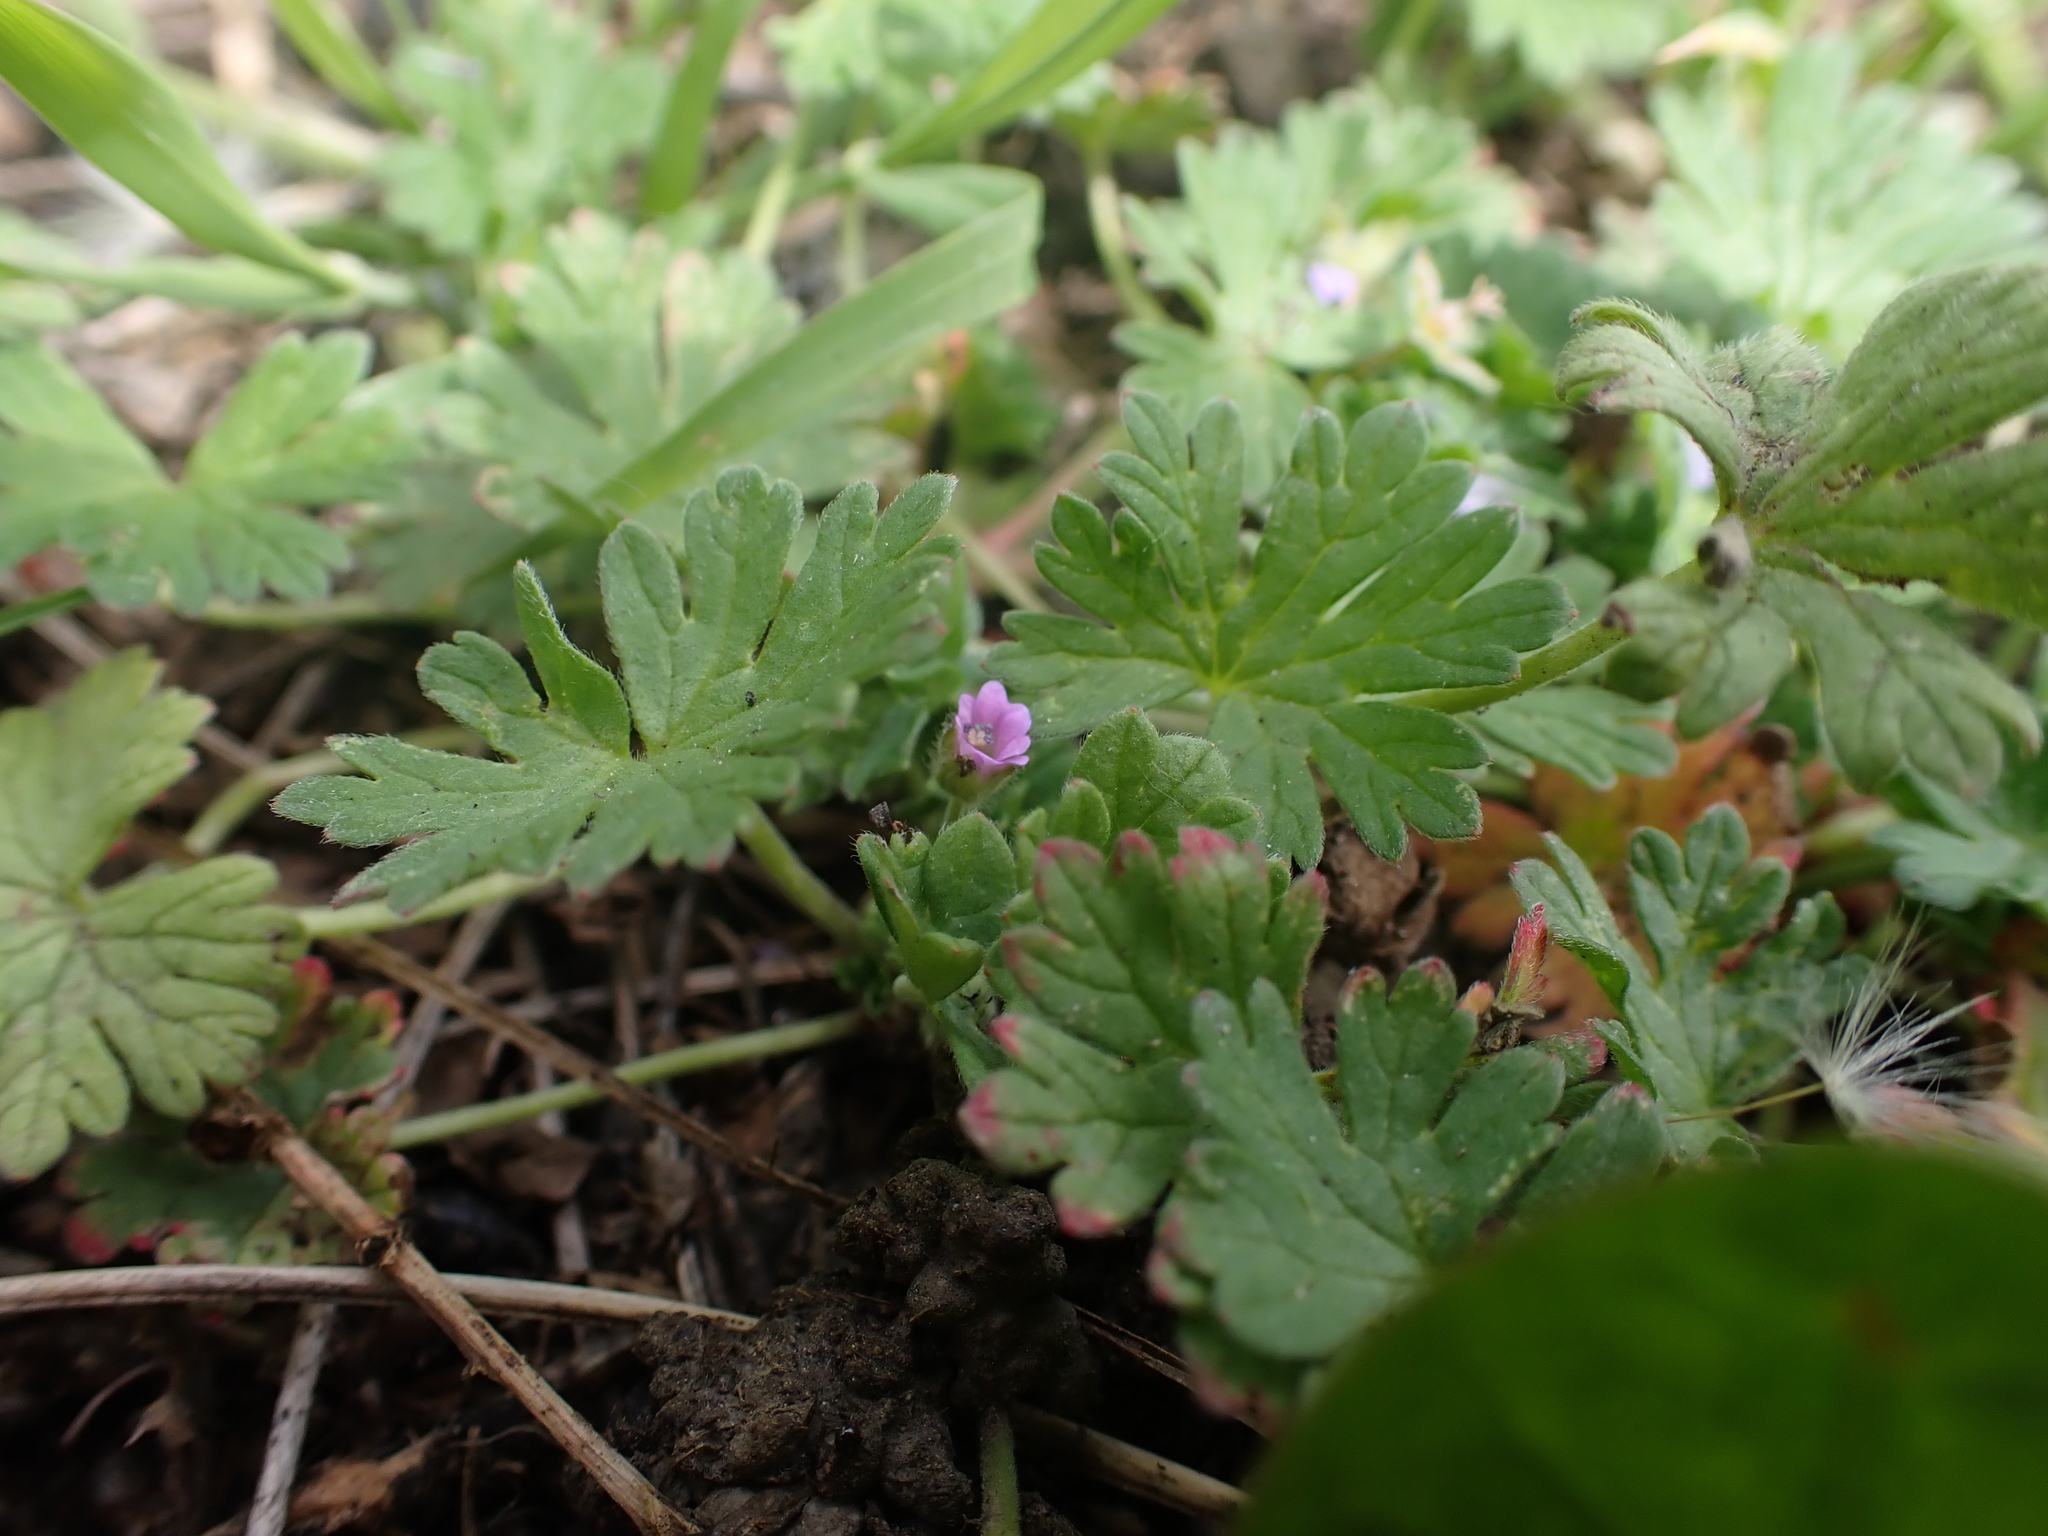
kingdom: Plantae
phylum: Tracheophyta
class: Magnoliopsida
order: Geraniales
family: Geraniaceae
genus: Geranium
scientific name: Geranium pusillum
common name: Small geranium
